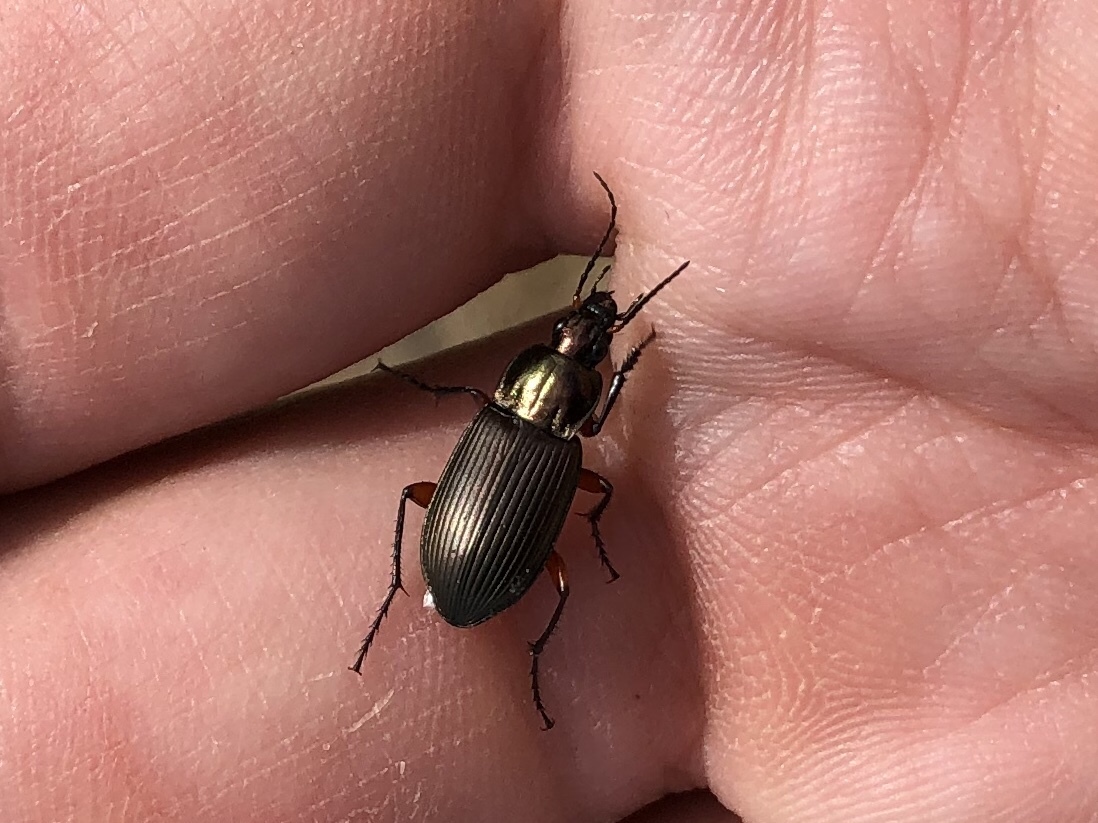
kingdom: Animalia
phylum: Arthropoda
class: Insecta
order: Coleoptera
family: Carabidae
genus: Poecilus
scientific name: Poecilus cupreus
